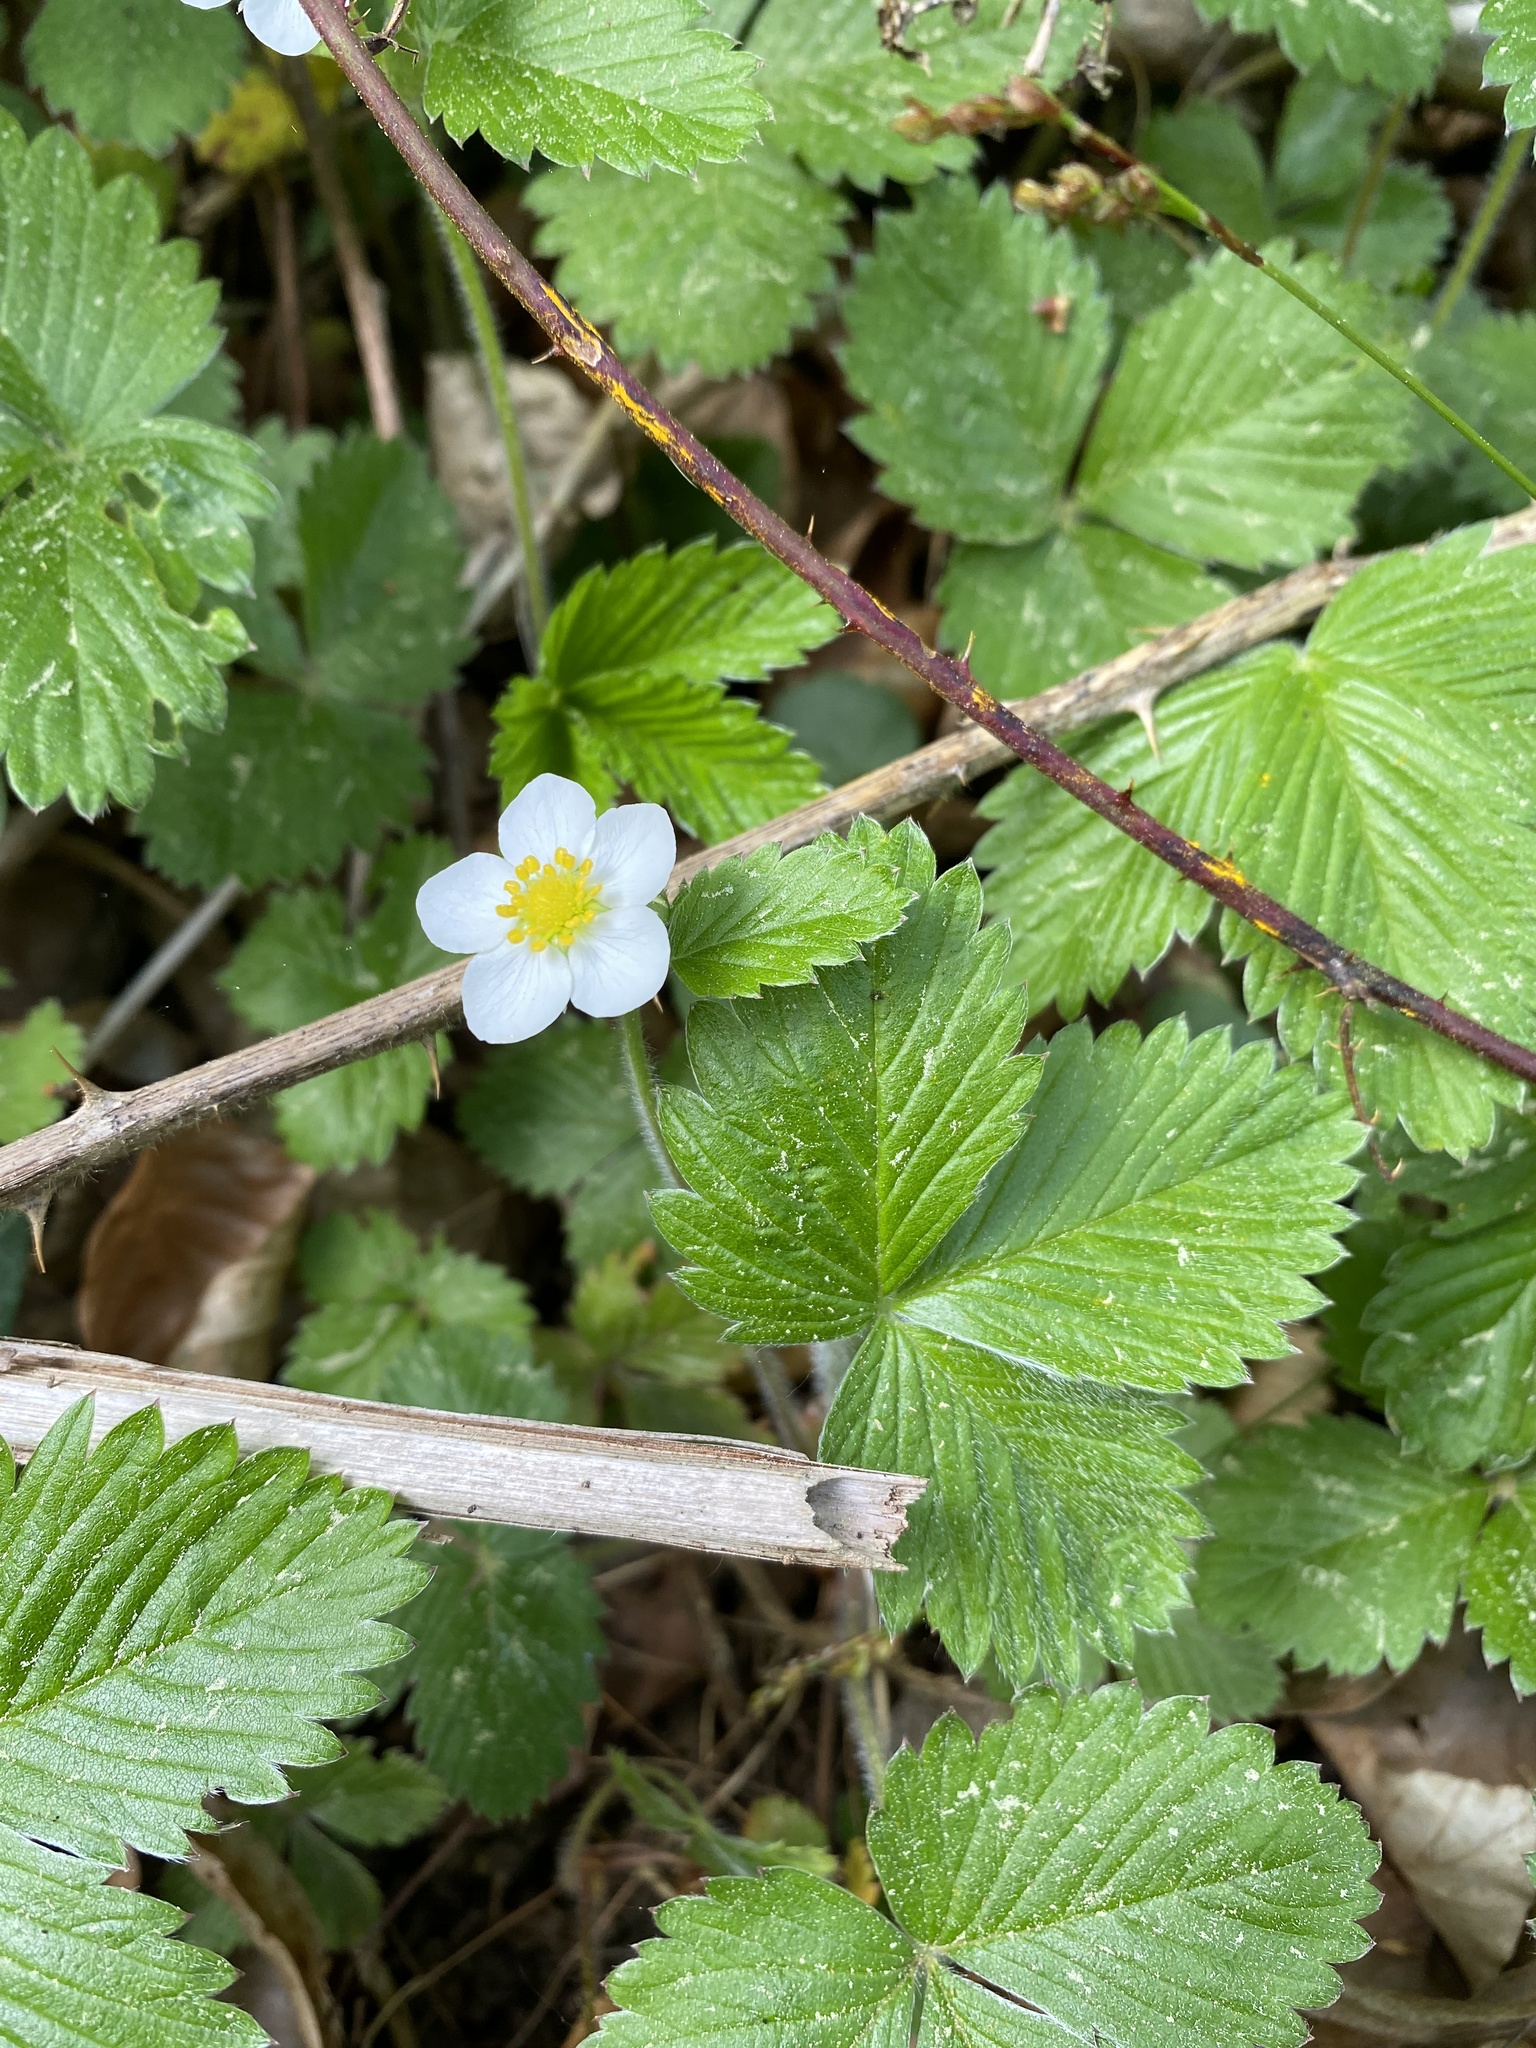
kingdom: Plantae
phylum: Tracheophyta
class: Magnoliopsida
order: Rosales
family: Rosaceae
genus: Fragaria
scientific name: Fragaria vesca
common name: Wild strawberry
